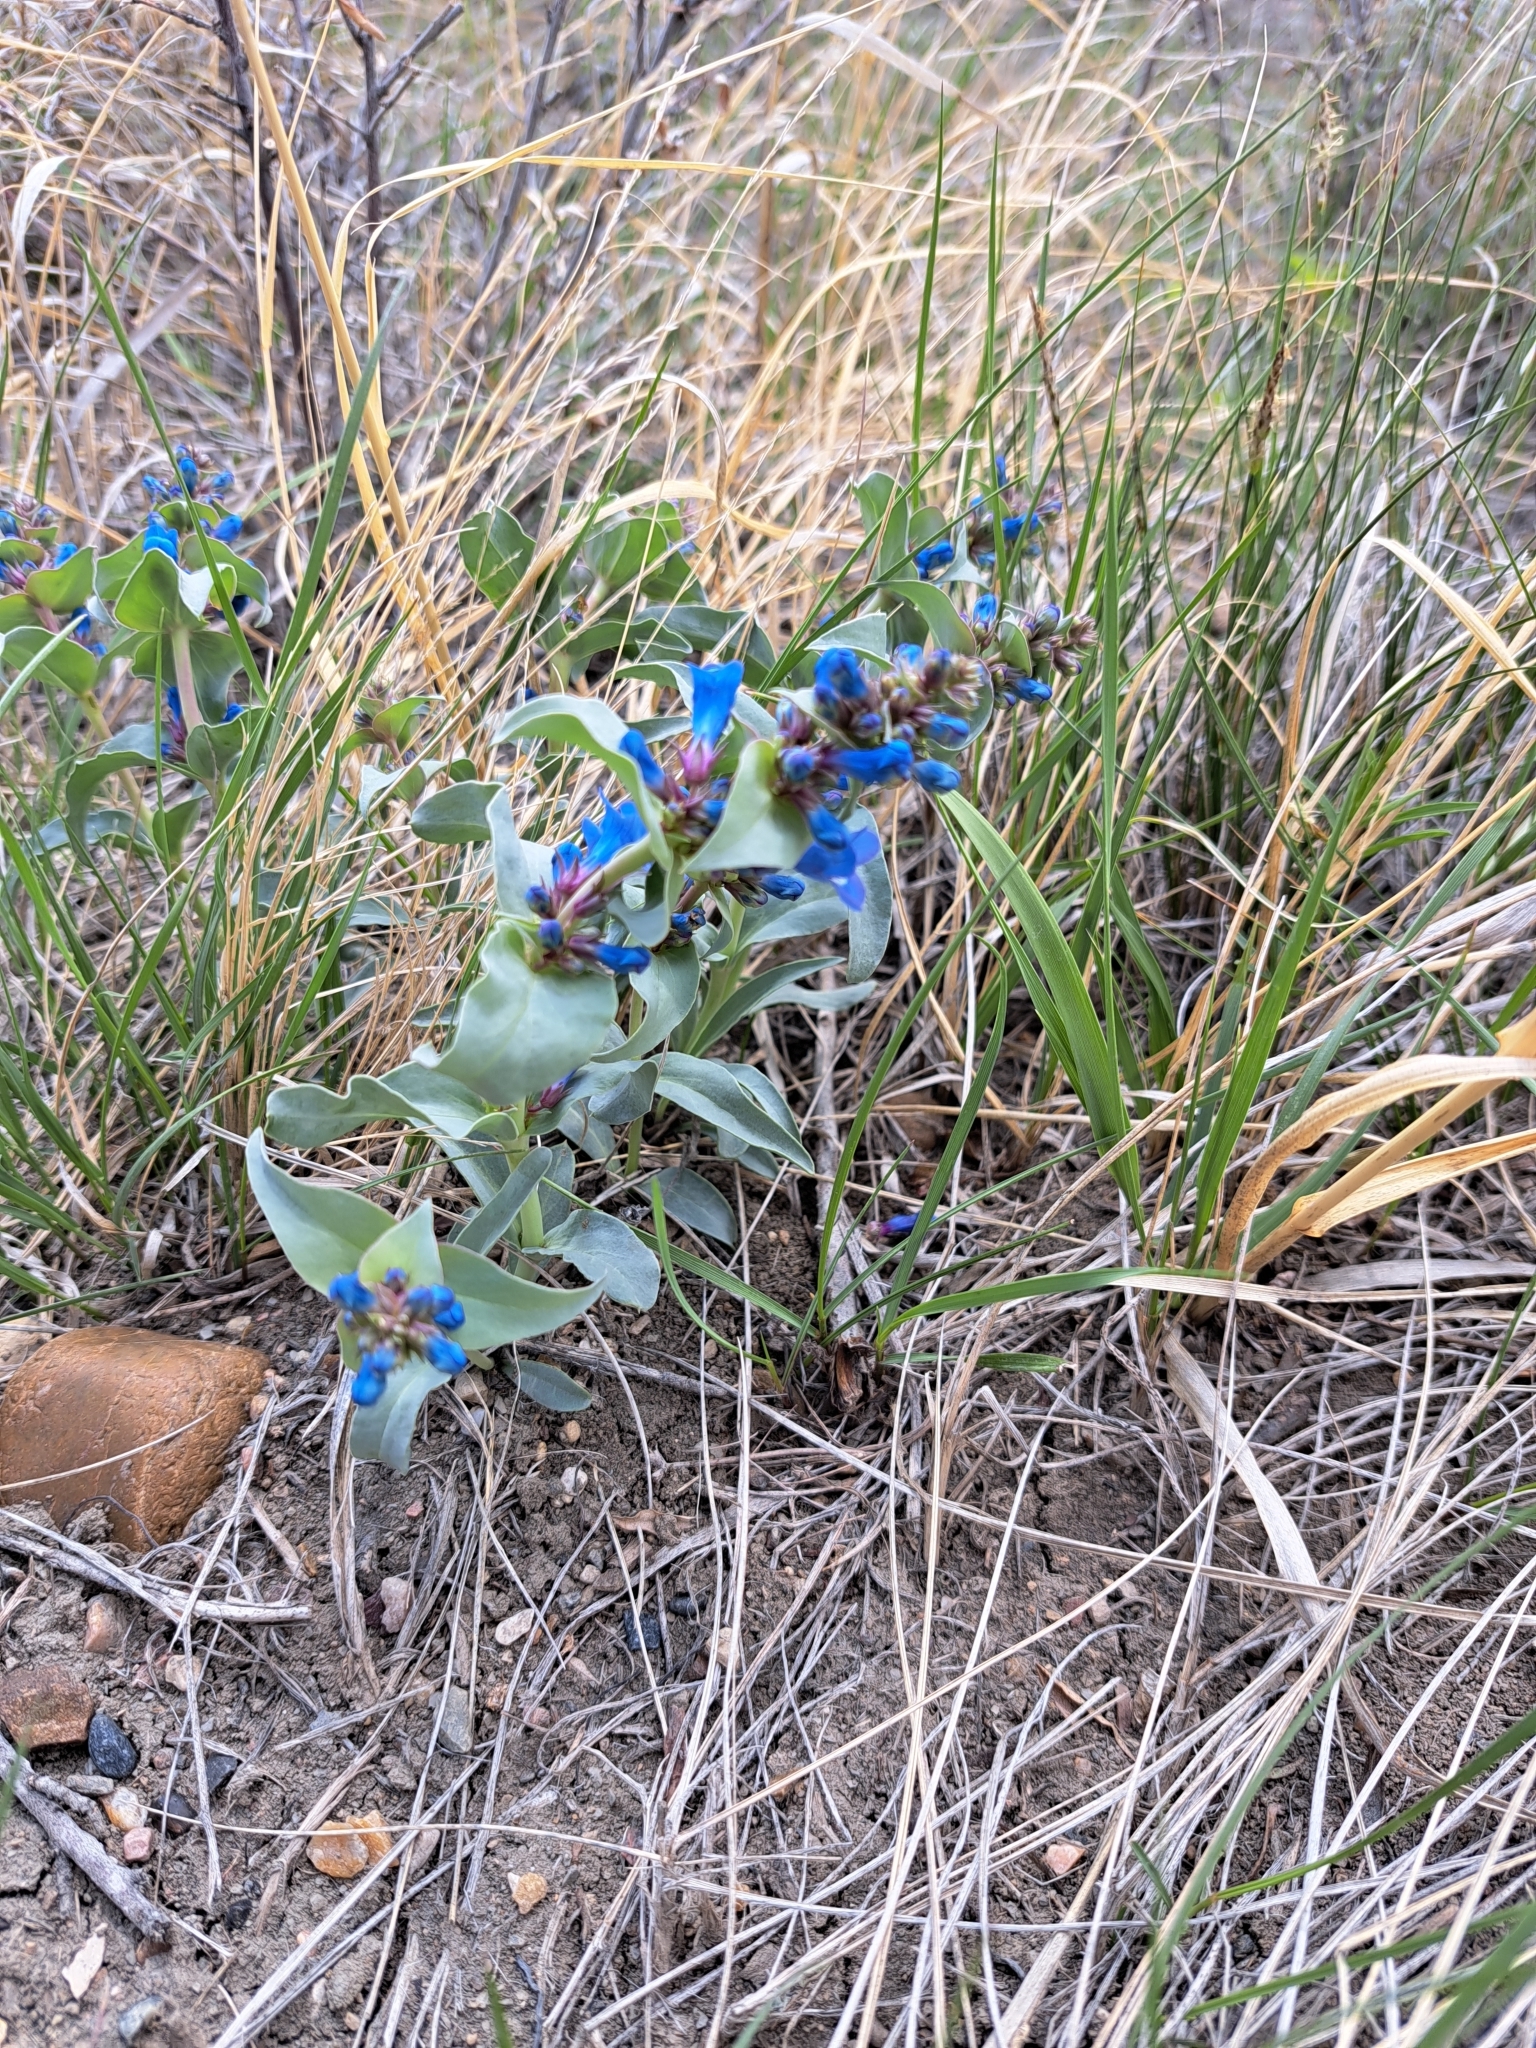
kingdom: Plantae
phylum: Tracheophyta
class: Magnoliopsida
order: Lamiales
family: Plantaginaceae
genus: Penstemon
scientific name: Penstemon nitidus
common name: Shining penstemon
